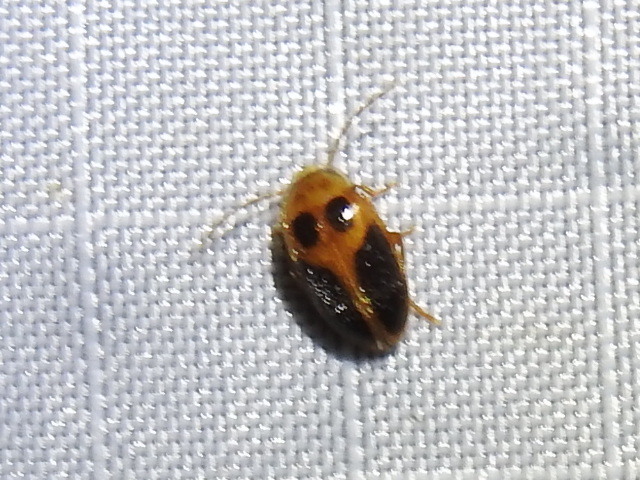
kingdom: Animalia
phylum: Arthropoda
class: Insecta
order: Coleoptera
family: Scirtidae
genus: Sacodes
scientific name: Sacodes pulchella
